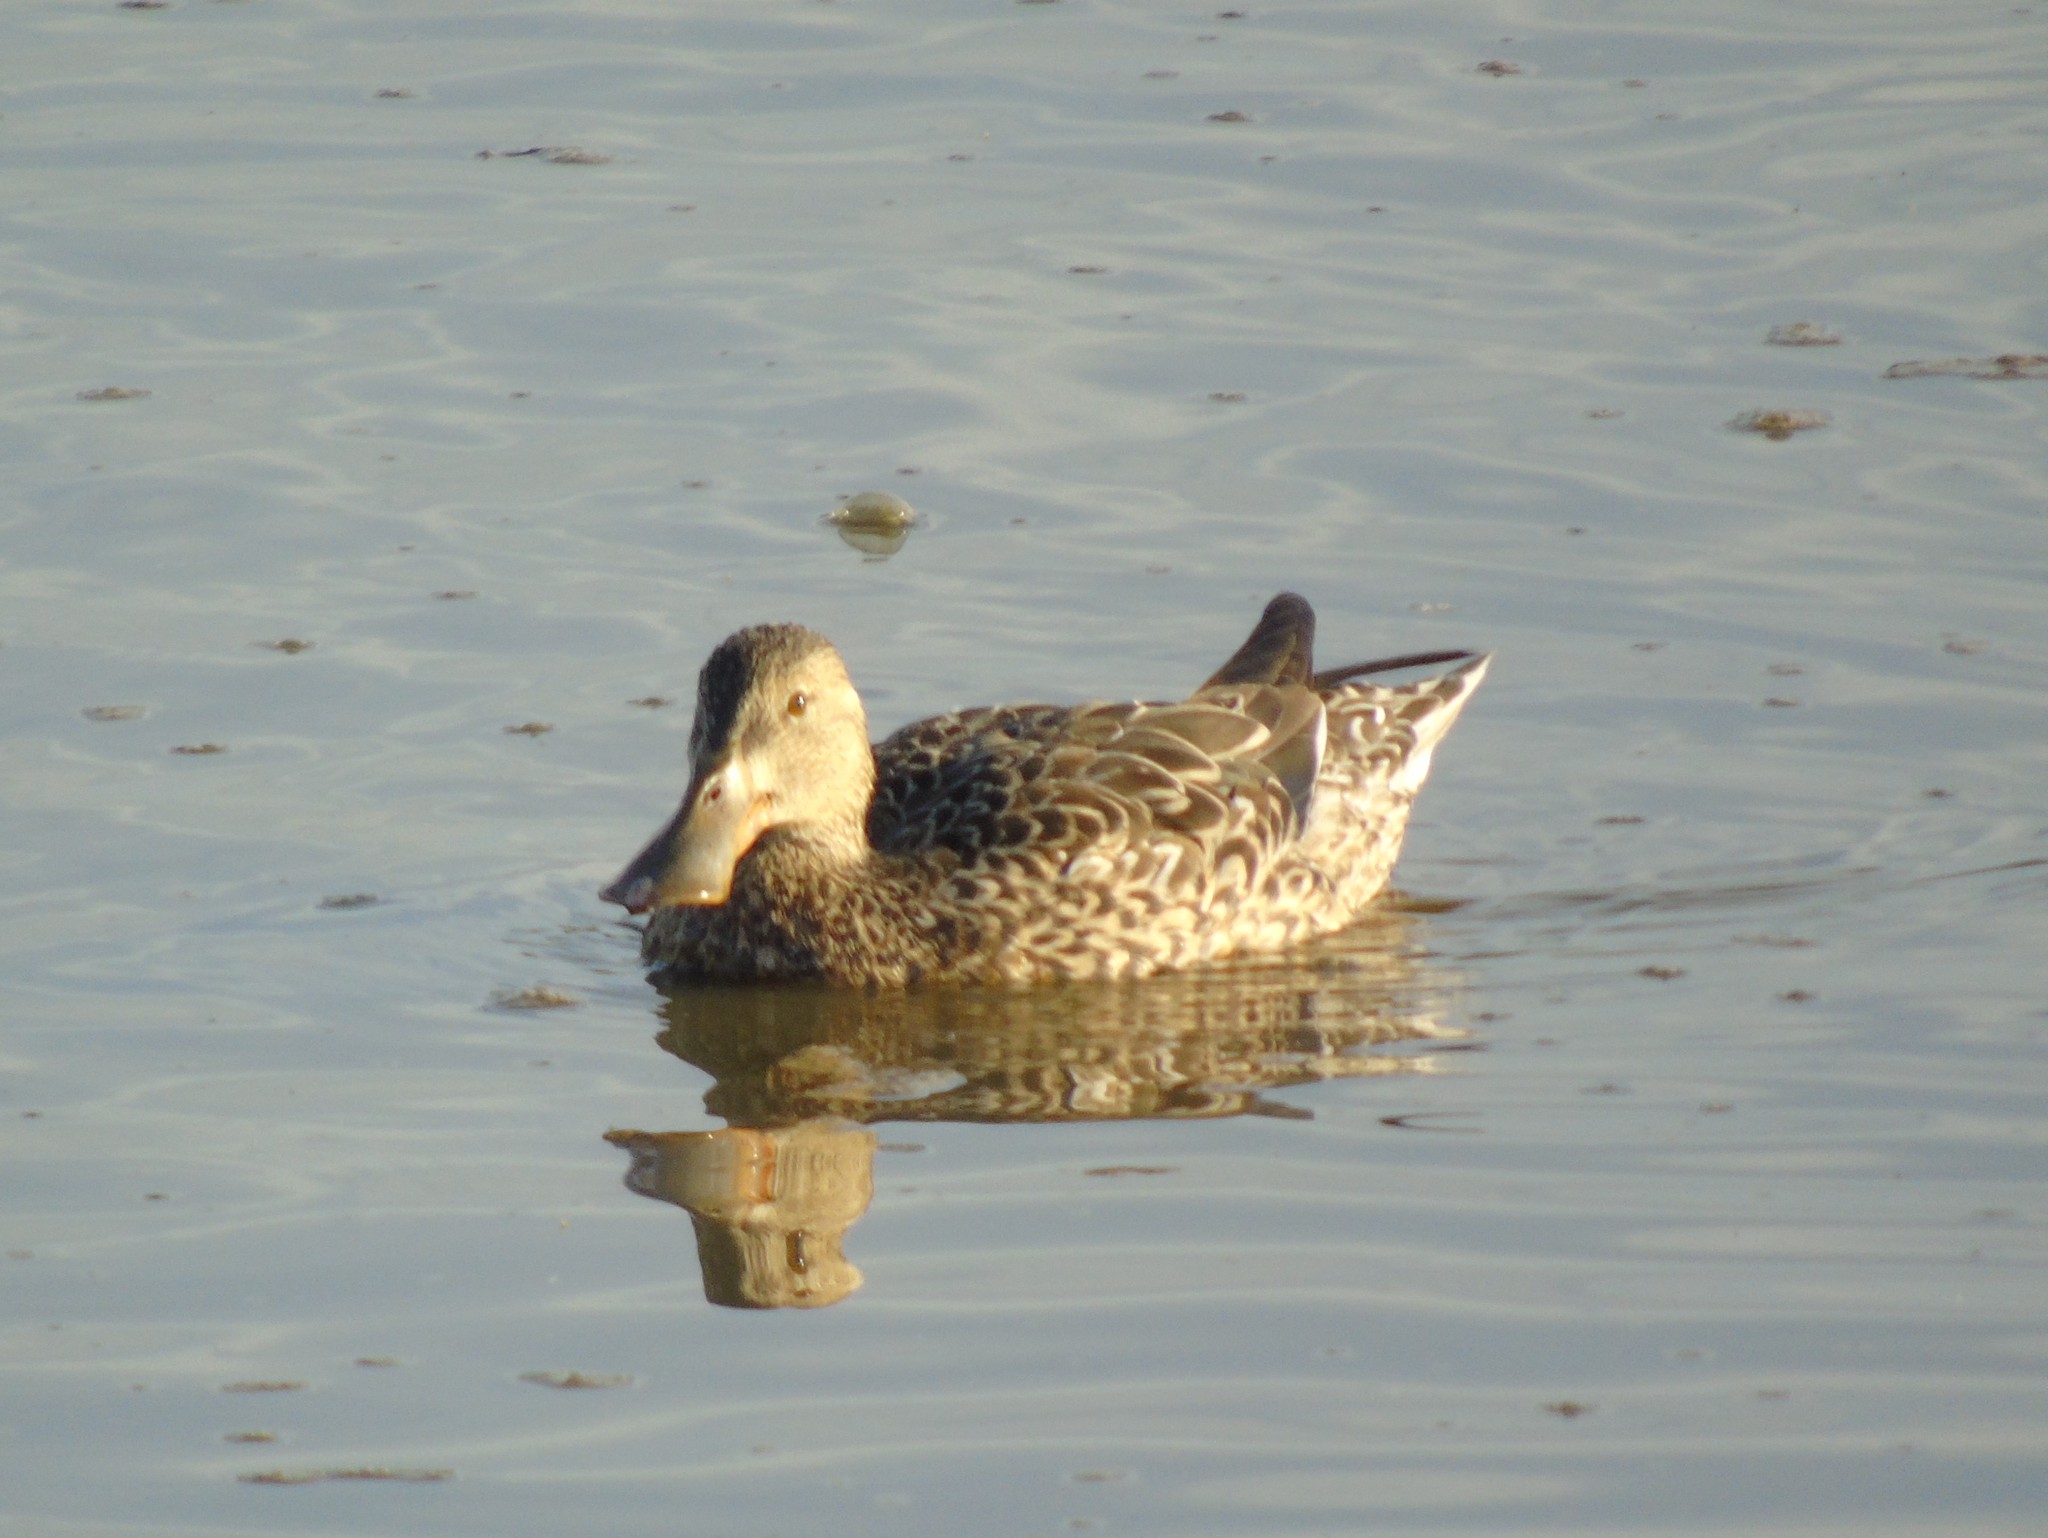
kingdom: Animalia
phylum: Chordata
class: Aves
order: Anseriformes
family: Anatidae
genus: Spatula
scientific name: Spatula clypeata
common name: Northern shoveler
